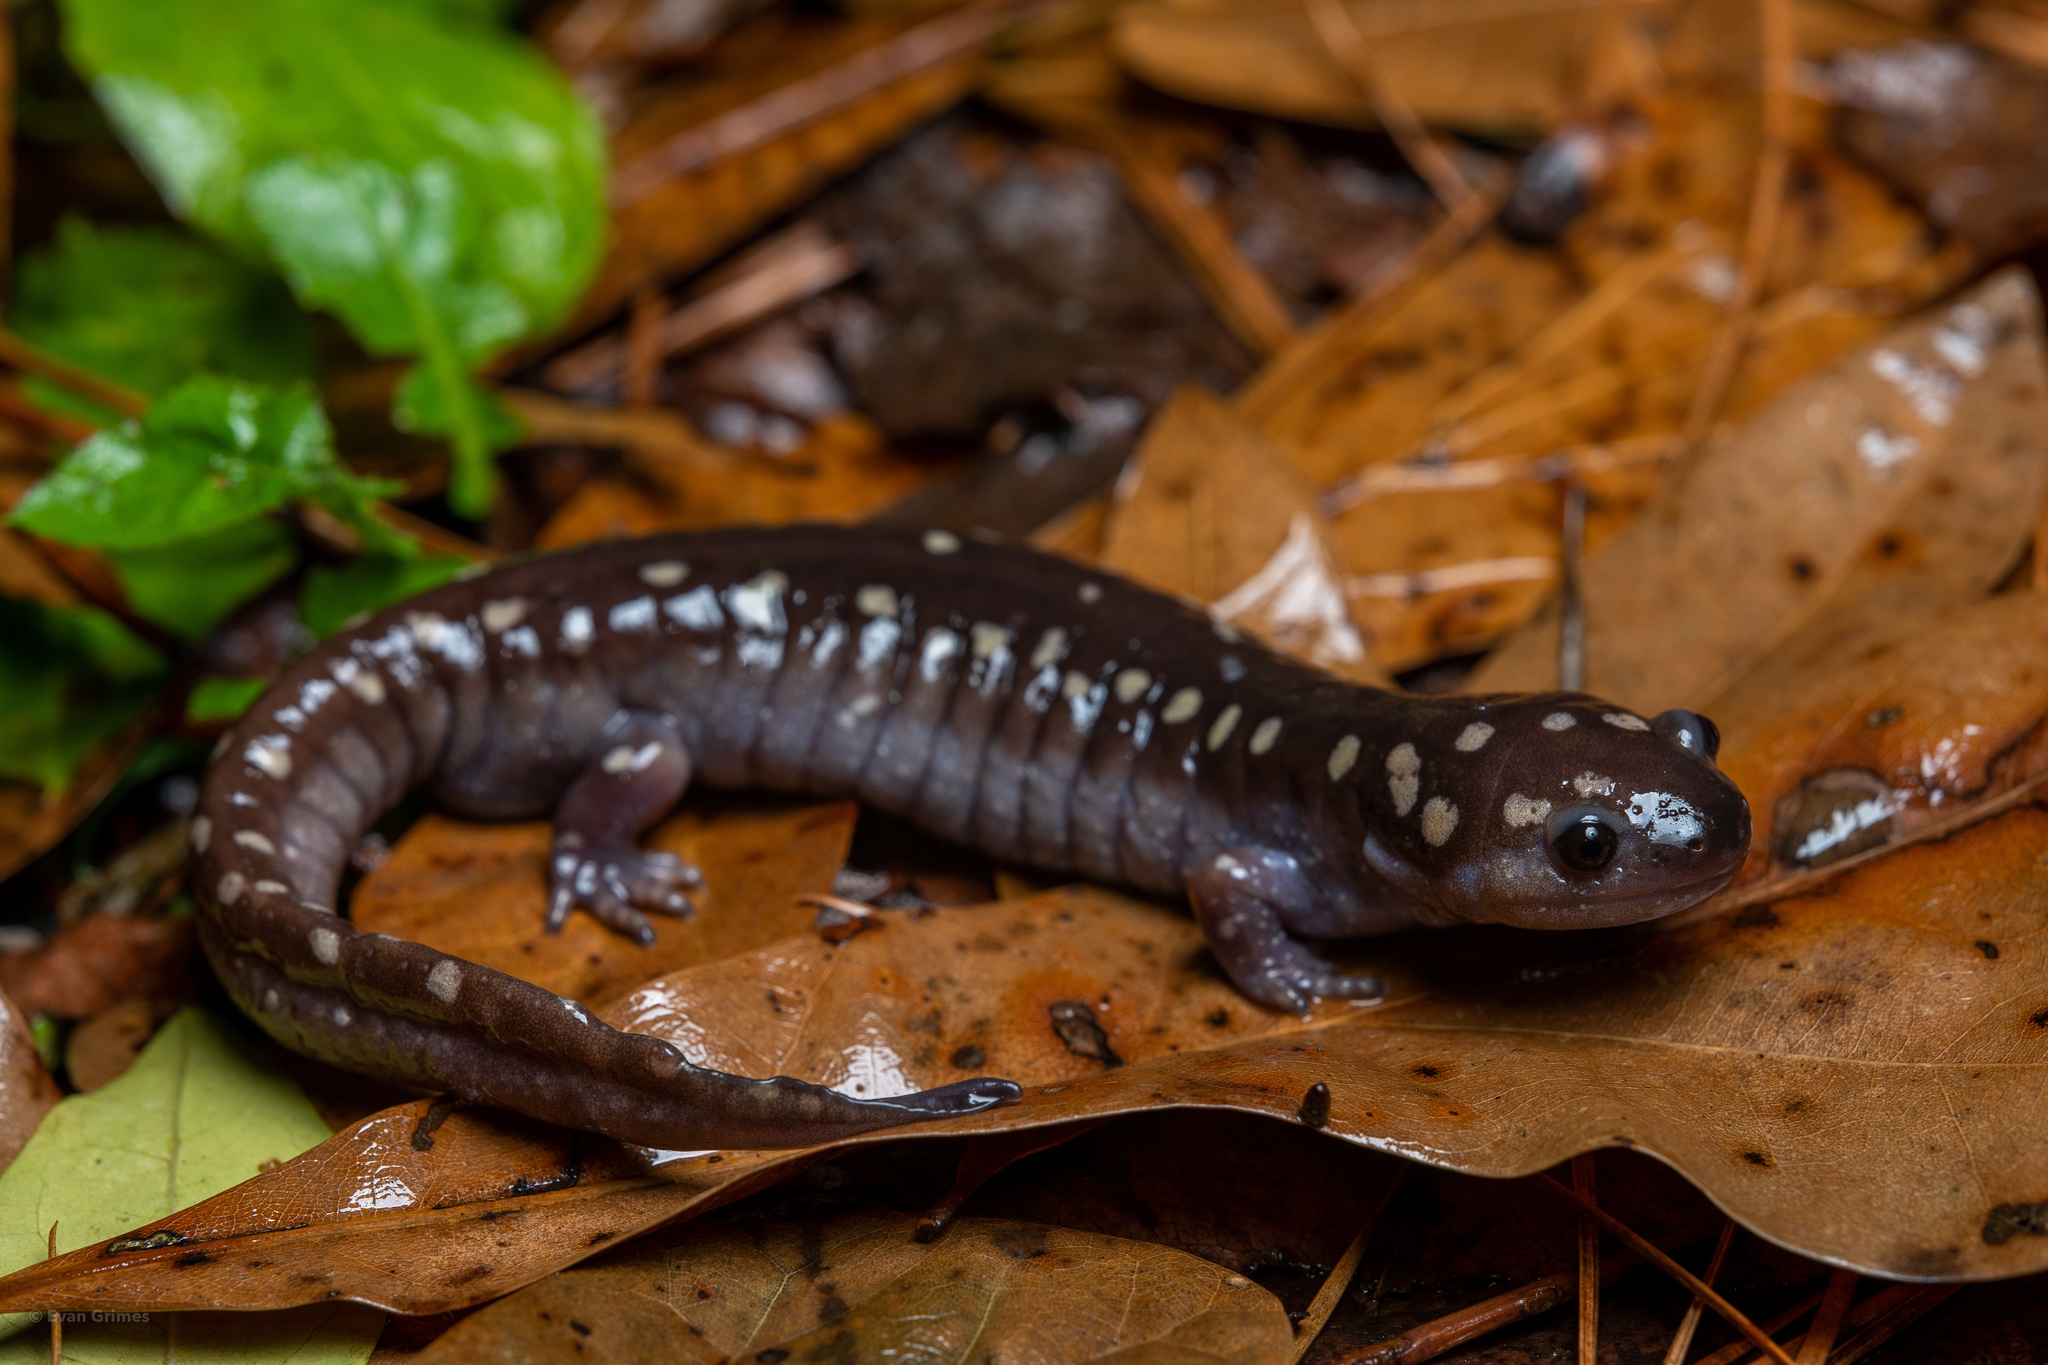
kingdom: Animalia
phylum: Chordata
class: Amphibia
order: Caudata
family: Ambystomatidae
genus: Ambystoma
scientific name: Ambystoma maculatum
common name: Spotted salamander
